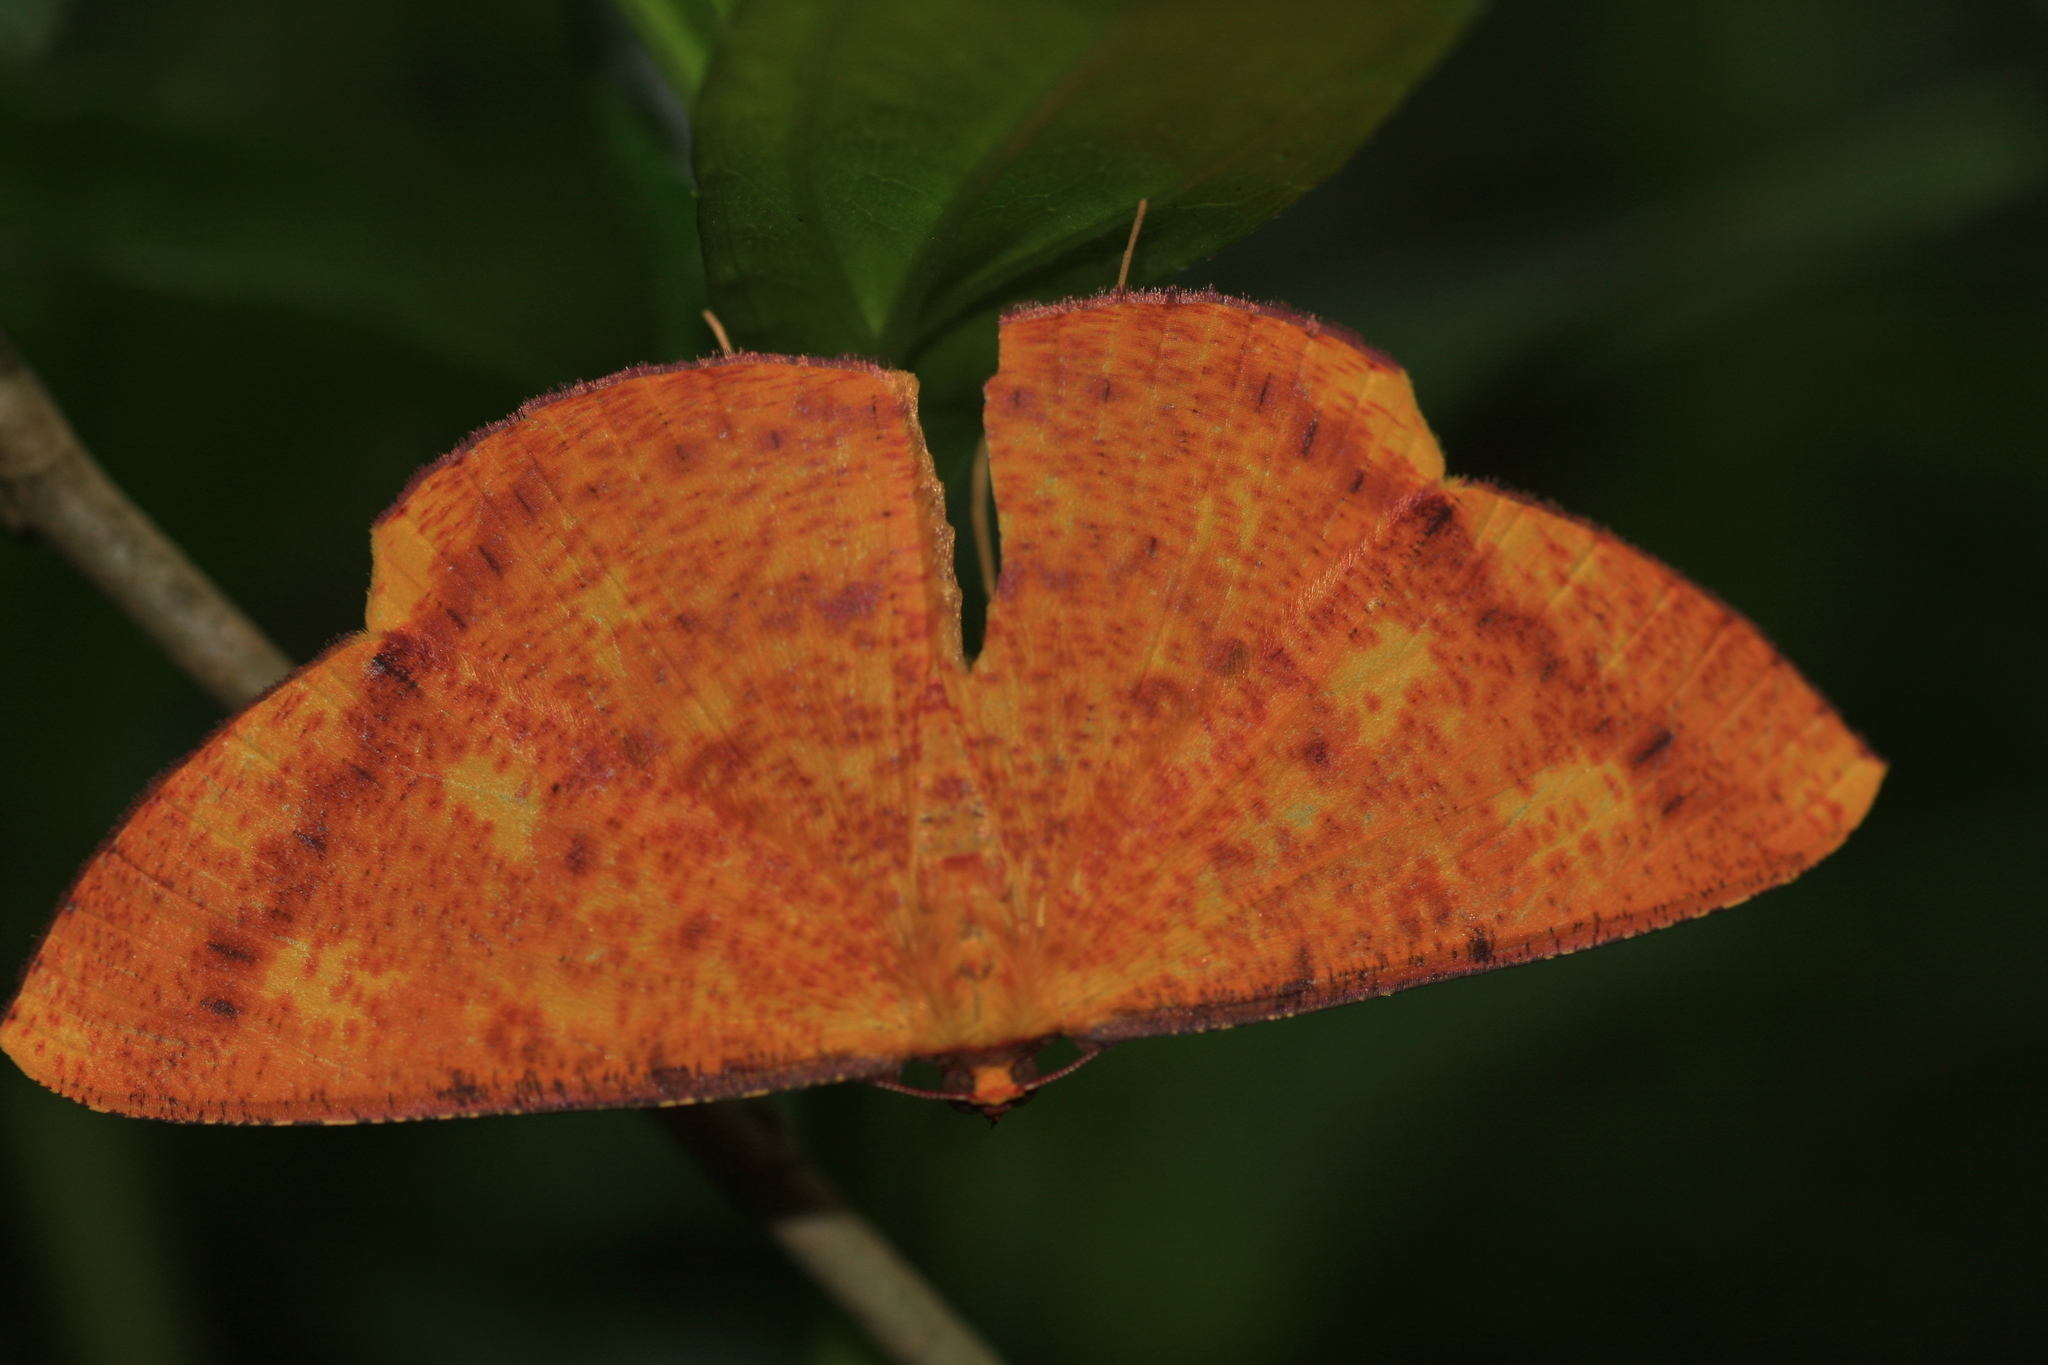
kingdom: Animalia
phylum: Arthropoda
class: Insecta
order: Lepidoptera
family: Geometridae
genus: Eumelea
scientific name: Eumelea ludovicata
